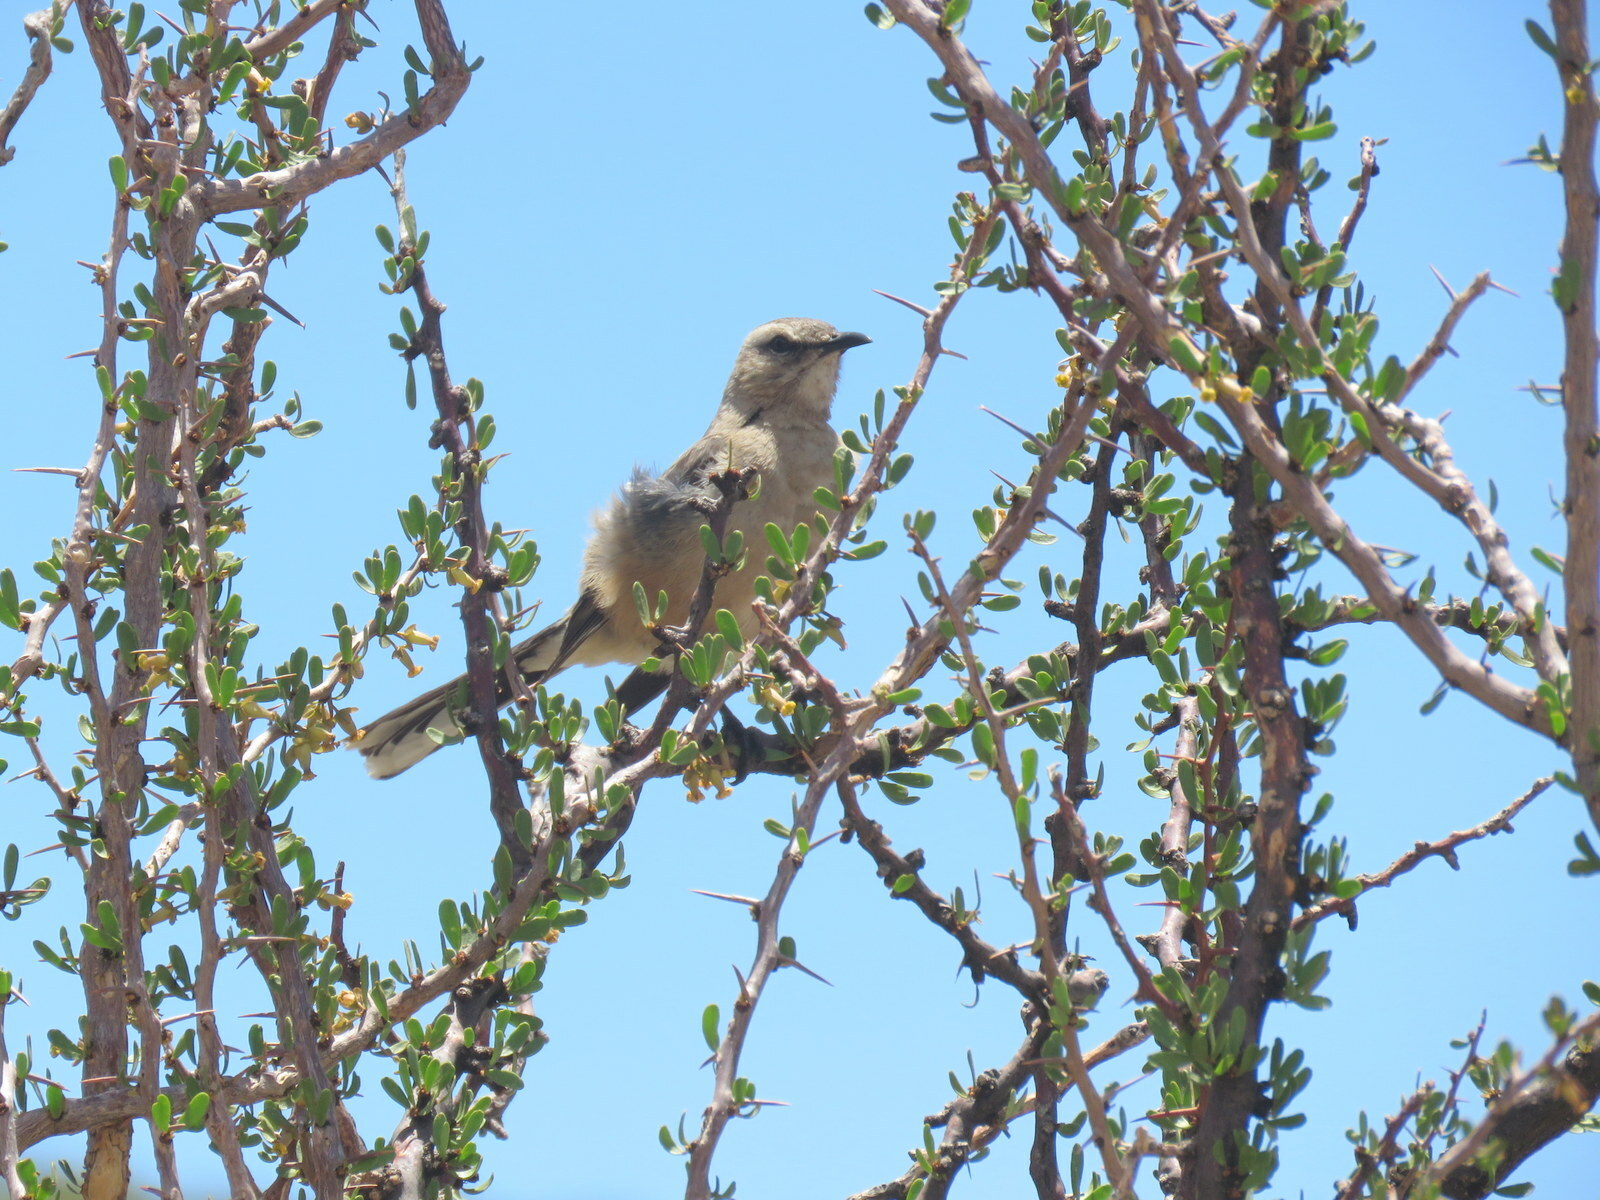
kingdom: Animalia
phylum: Chordata
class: Aves
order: Passeriformes
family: Mimidae
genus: Mimus
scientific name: Mimus patagonicus
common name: Patagonian mockingbird
